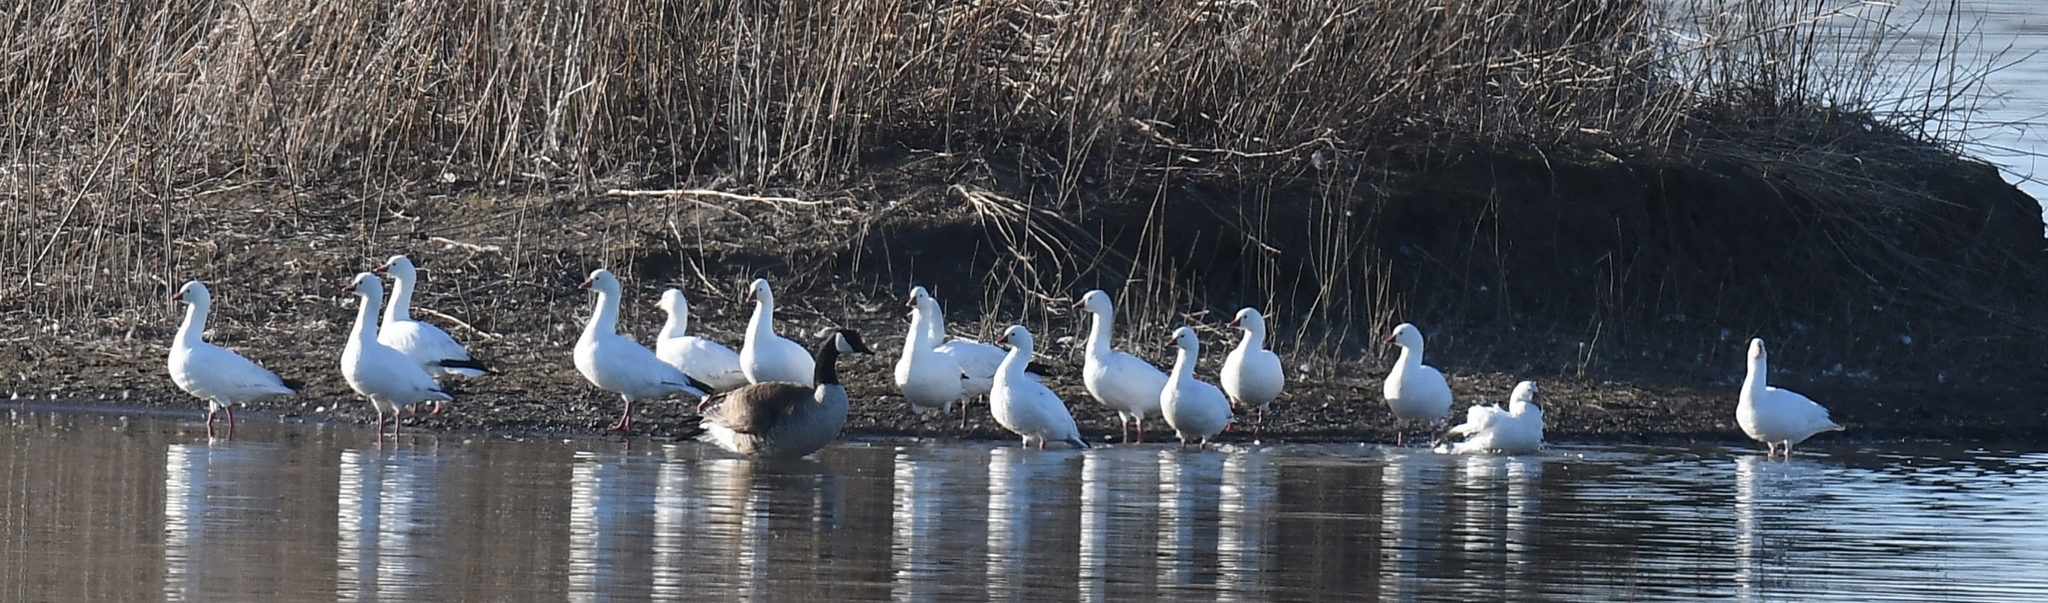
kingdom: Animalia
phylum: Chordata
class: Aves
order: Anseriformes
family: Anatidae
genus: Anser
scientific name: Anser rossii
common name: Ross's goose
